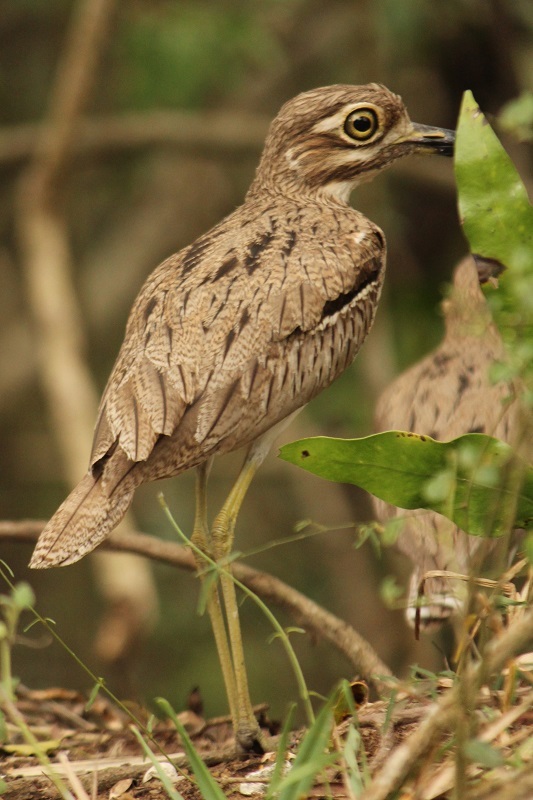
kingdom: Animalia
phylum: Chordata
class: Aves
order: Charadriiformes
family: Burhinidae
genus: Burhinus
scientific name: Burhinus vermiculatus
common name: Water thick-knee
